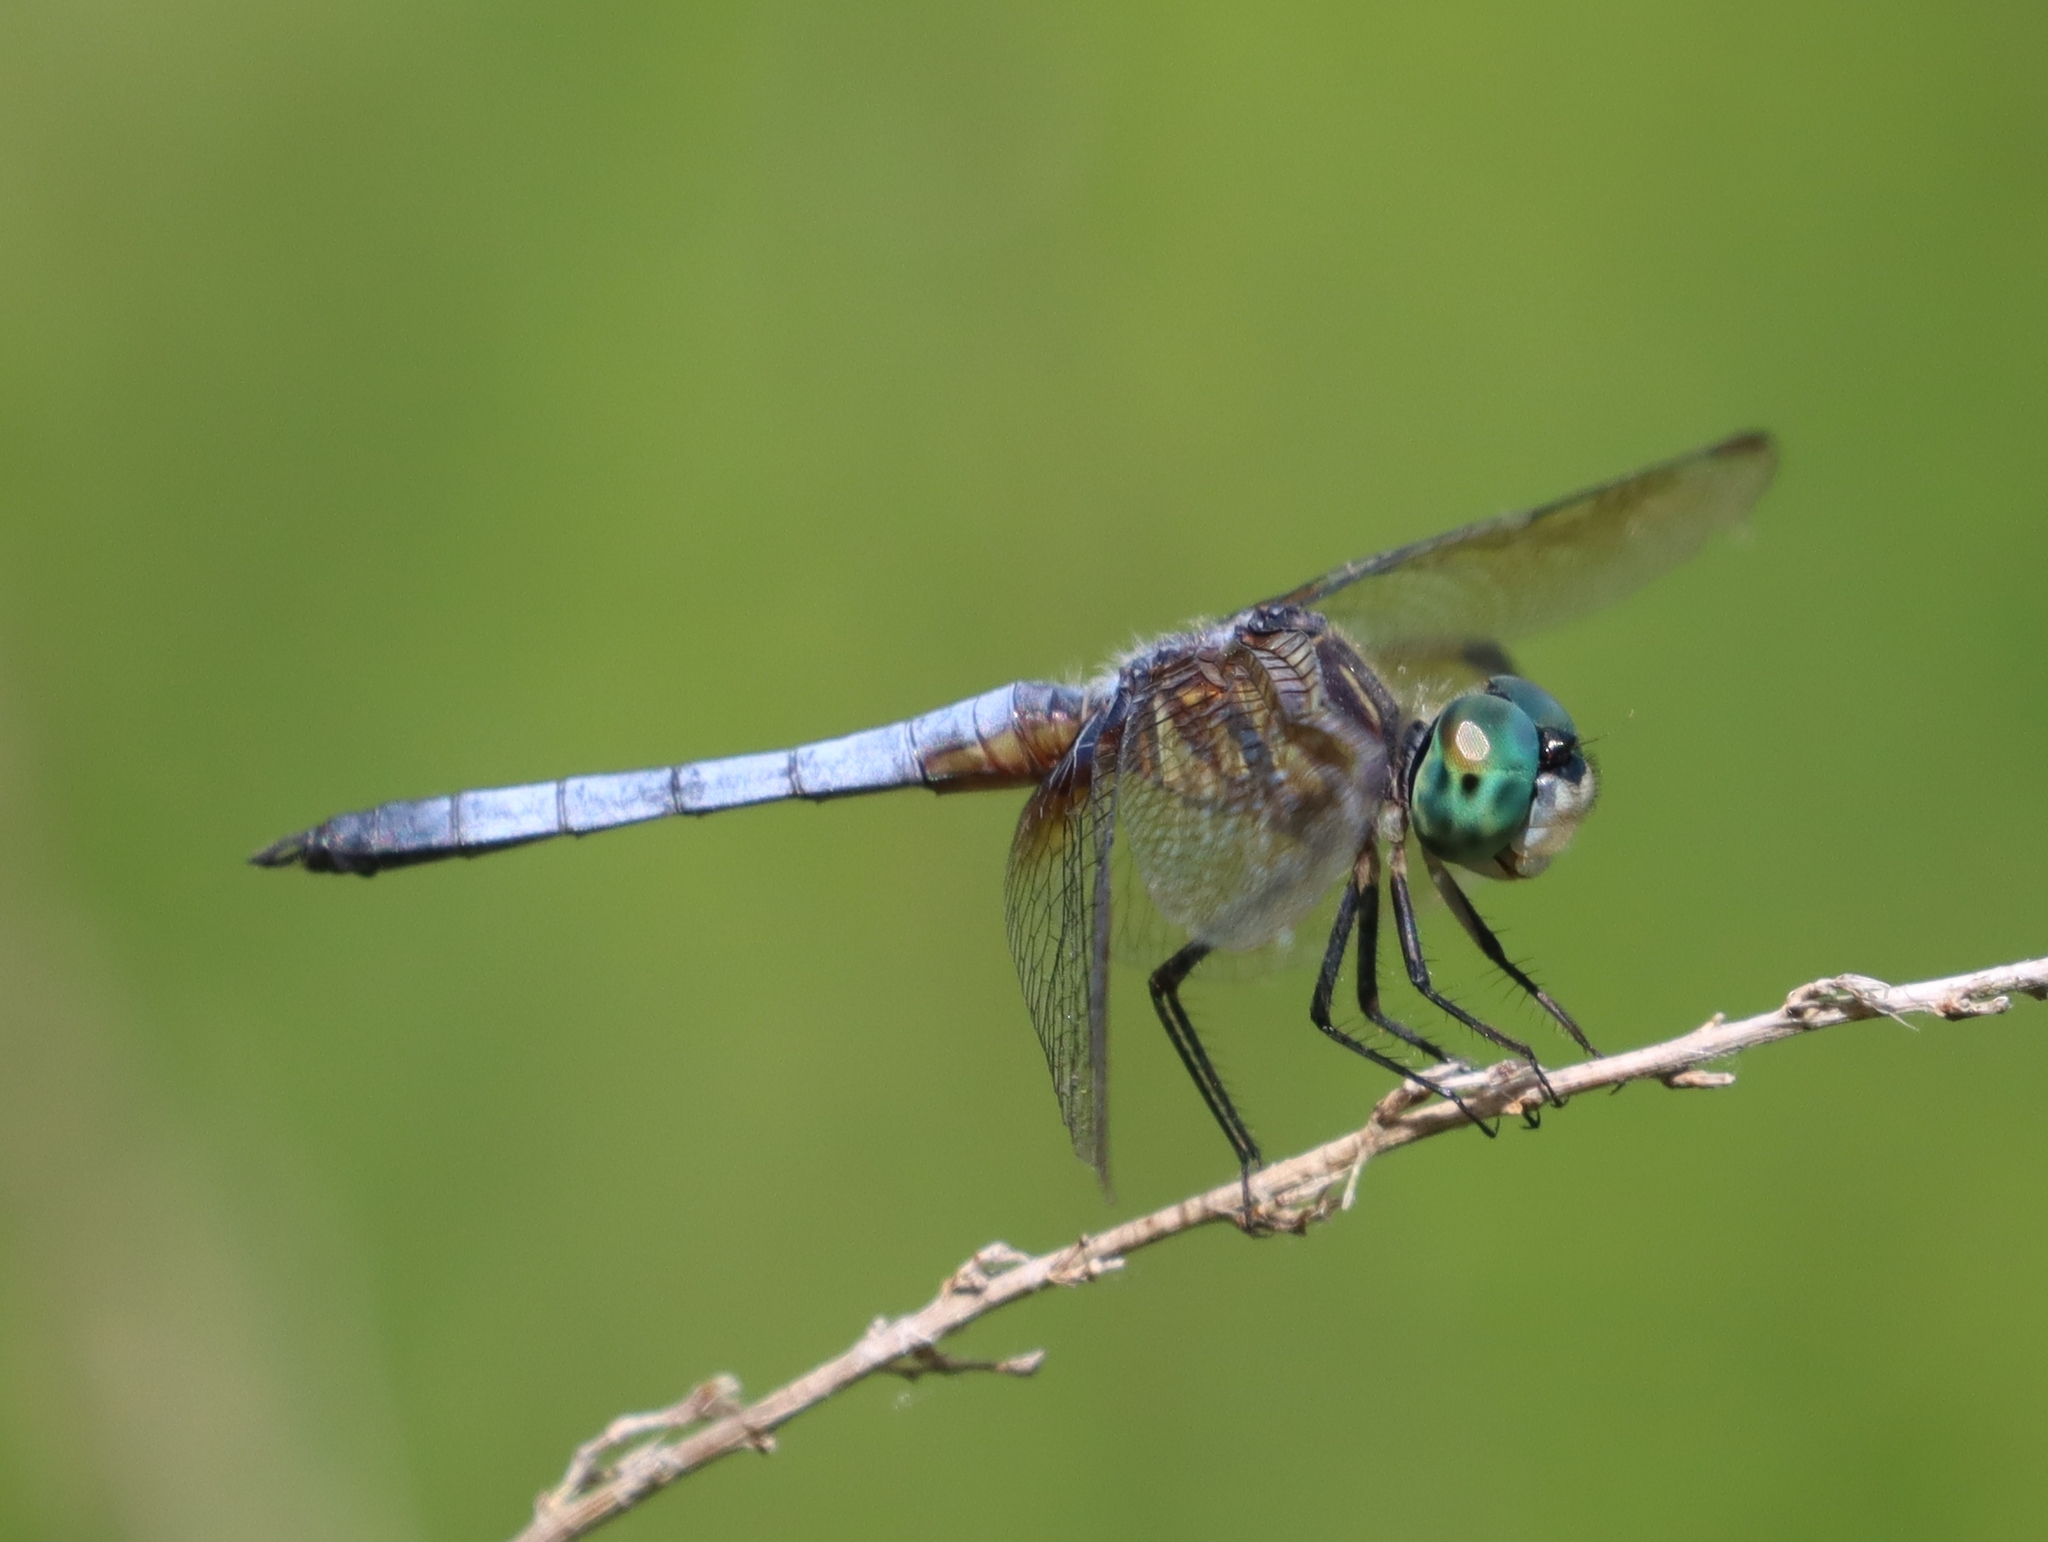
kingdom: Animalia
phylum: Arthropoda
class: Insecta
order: Odonata
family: Libellulidae
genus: Pachydiplax
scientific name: Pachydiplax longipennis
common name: Blue dasher
